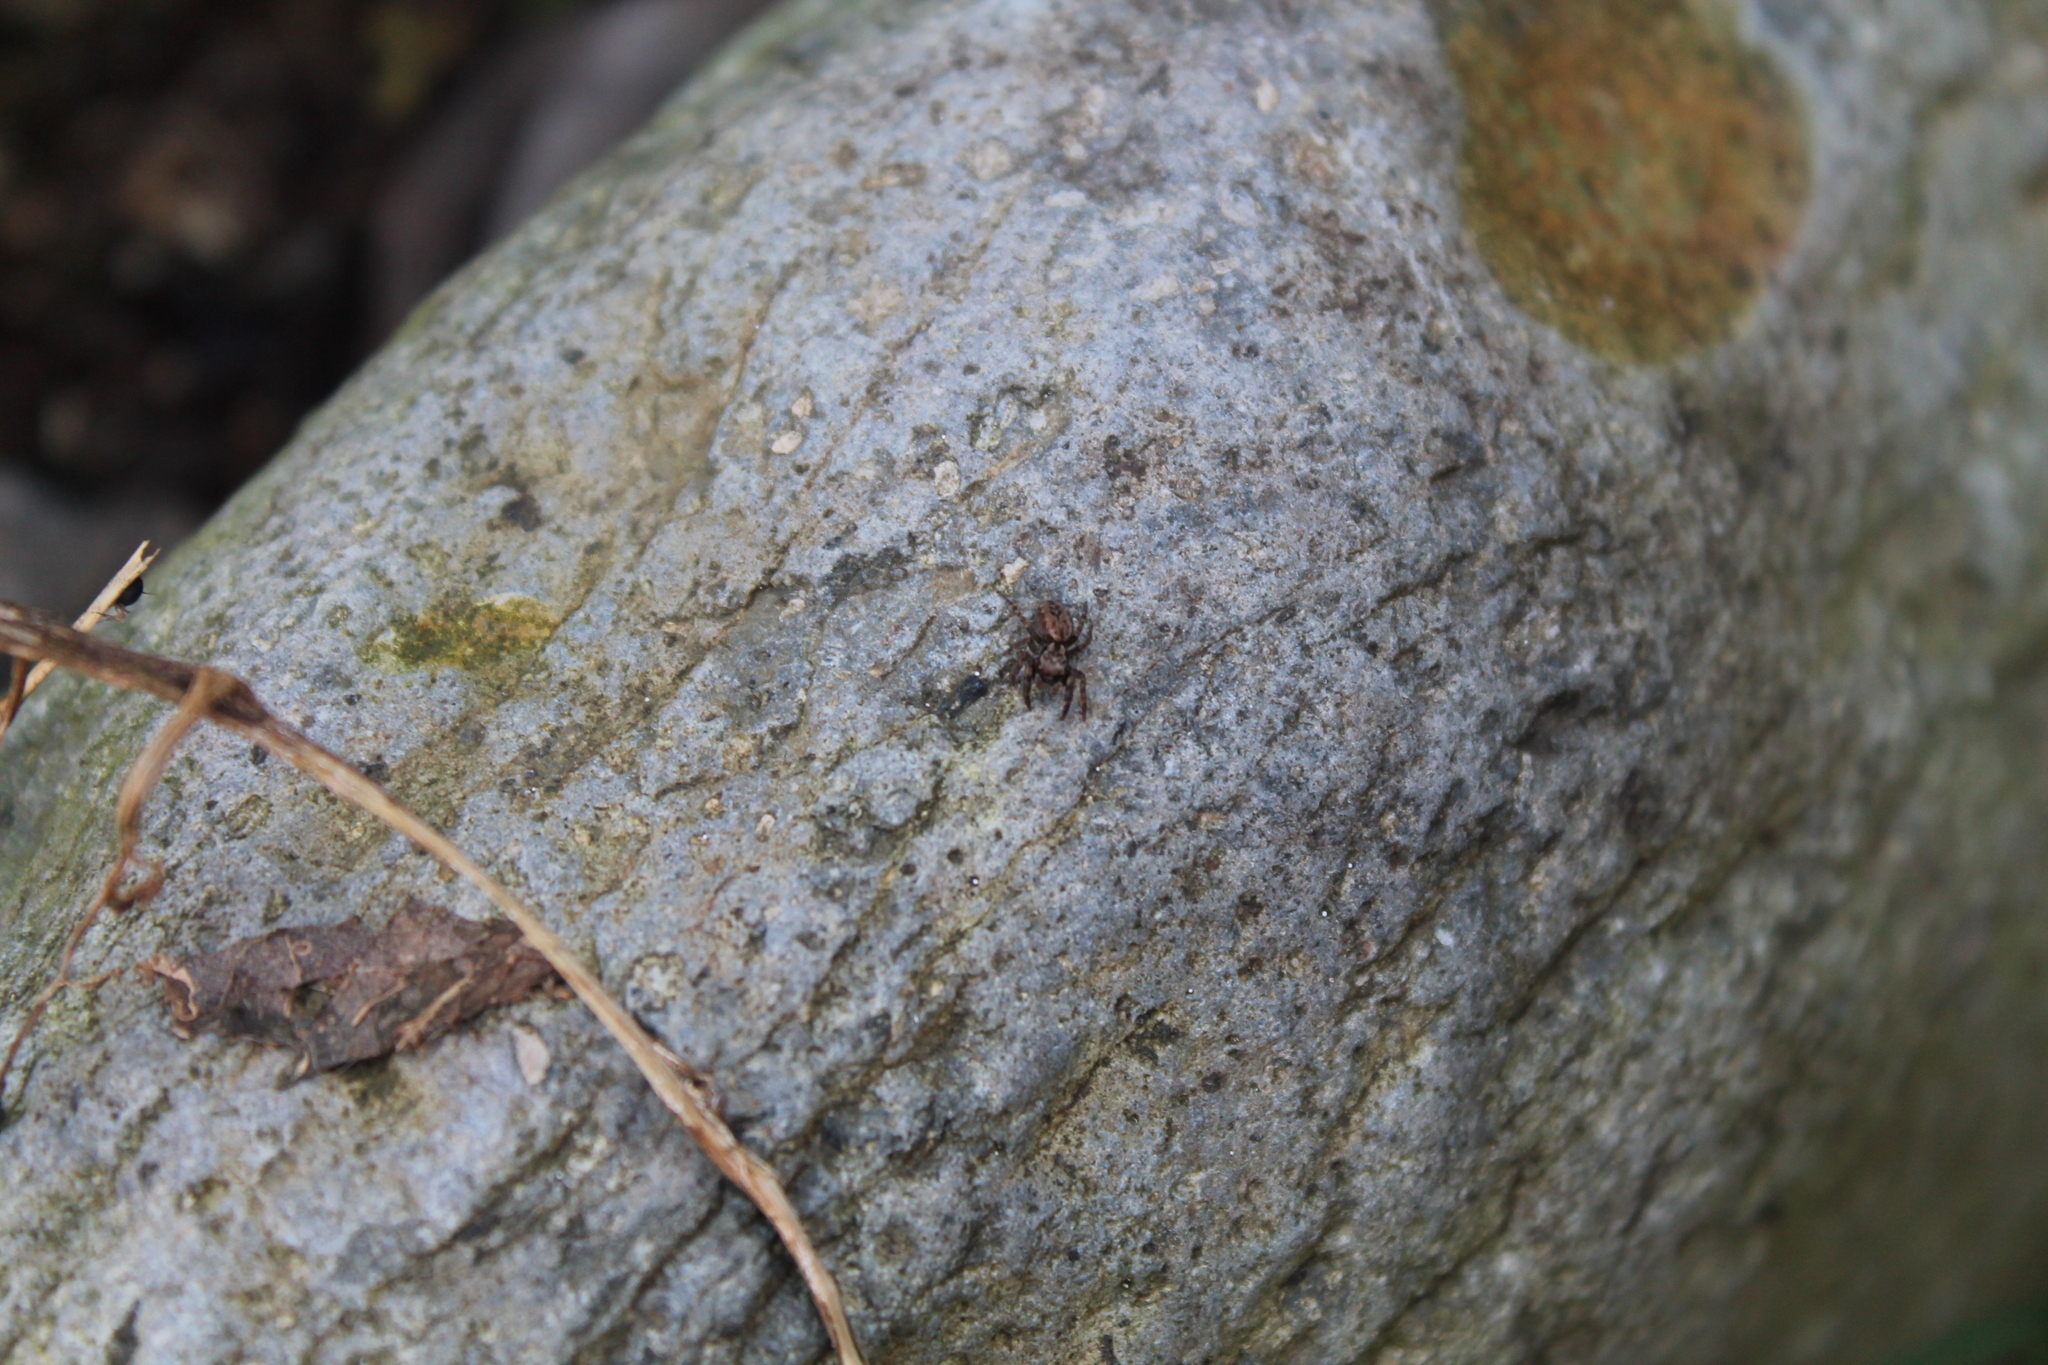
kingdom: Animalia
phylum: Arthropoda
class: Arachnida
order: Araneae
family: Salticidae
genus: Trite
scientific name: Trite auricoma
